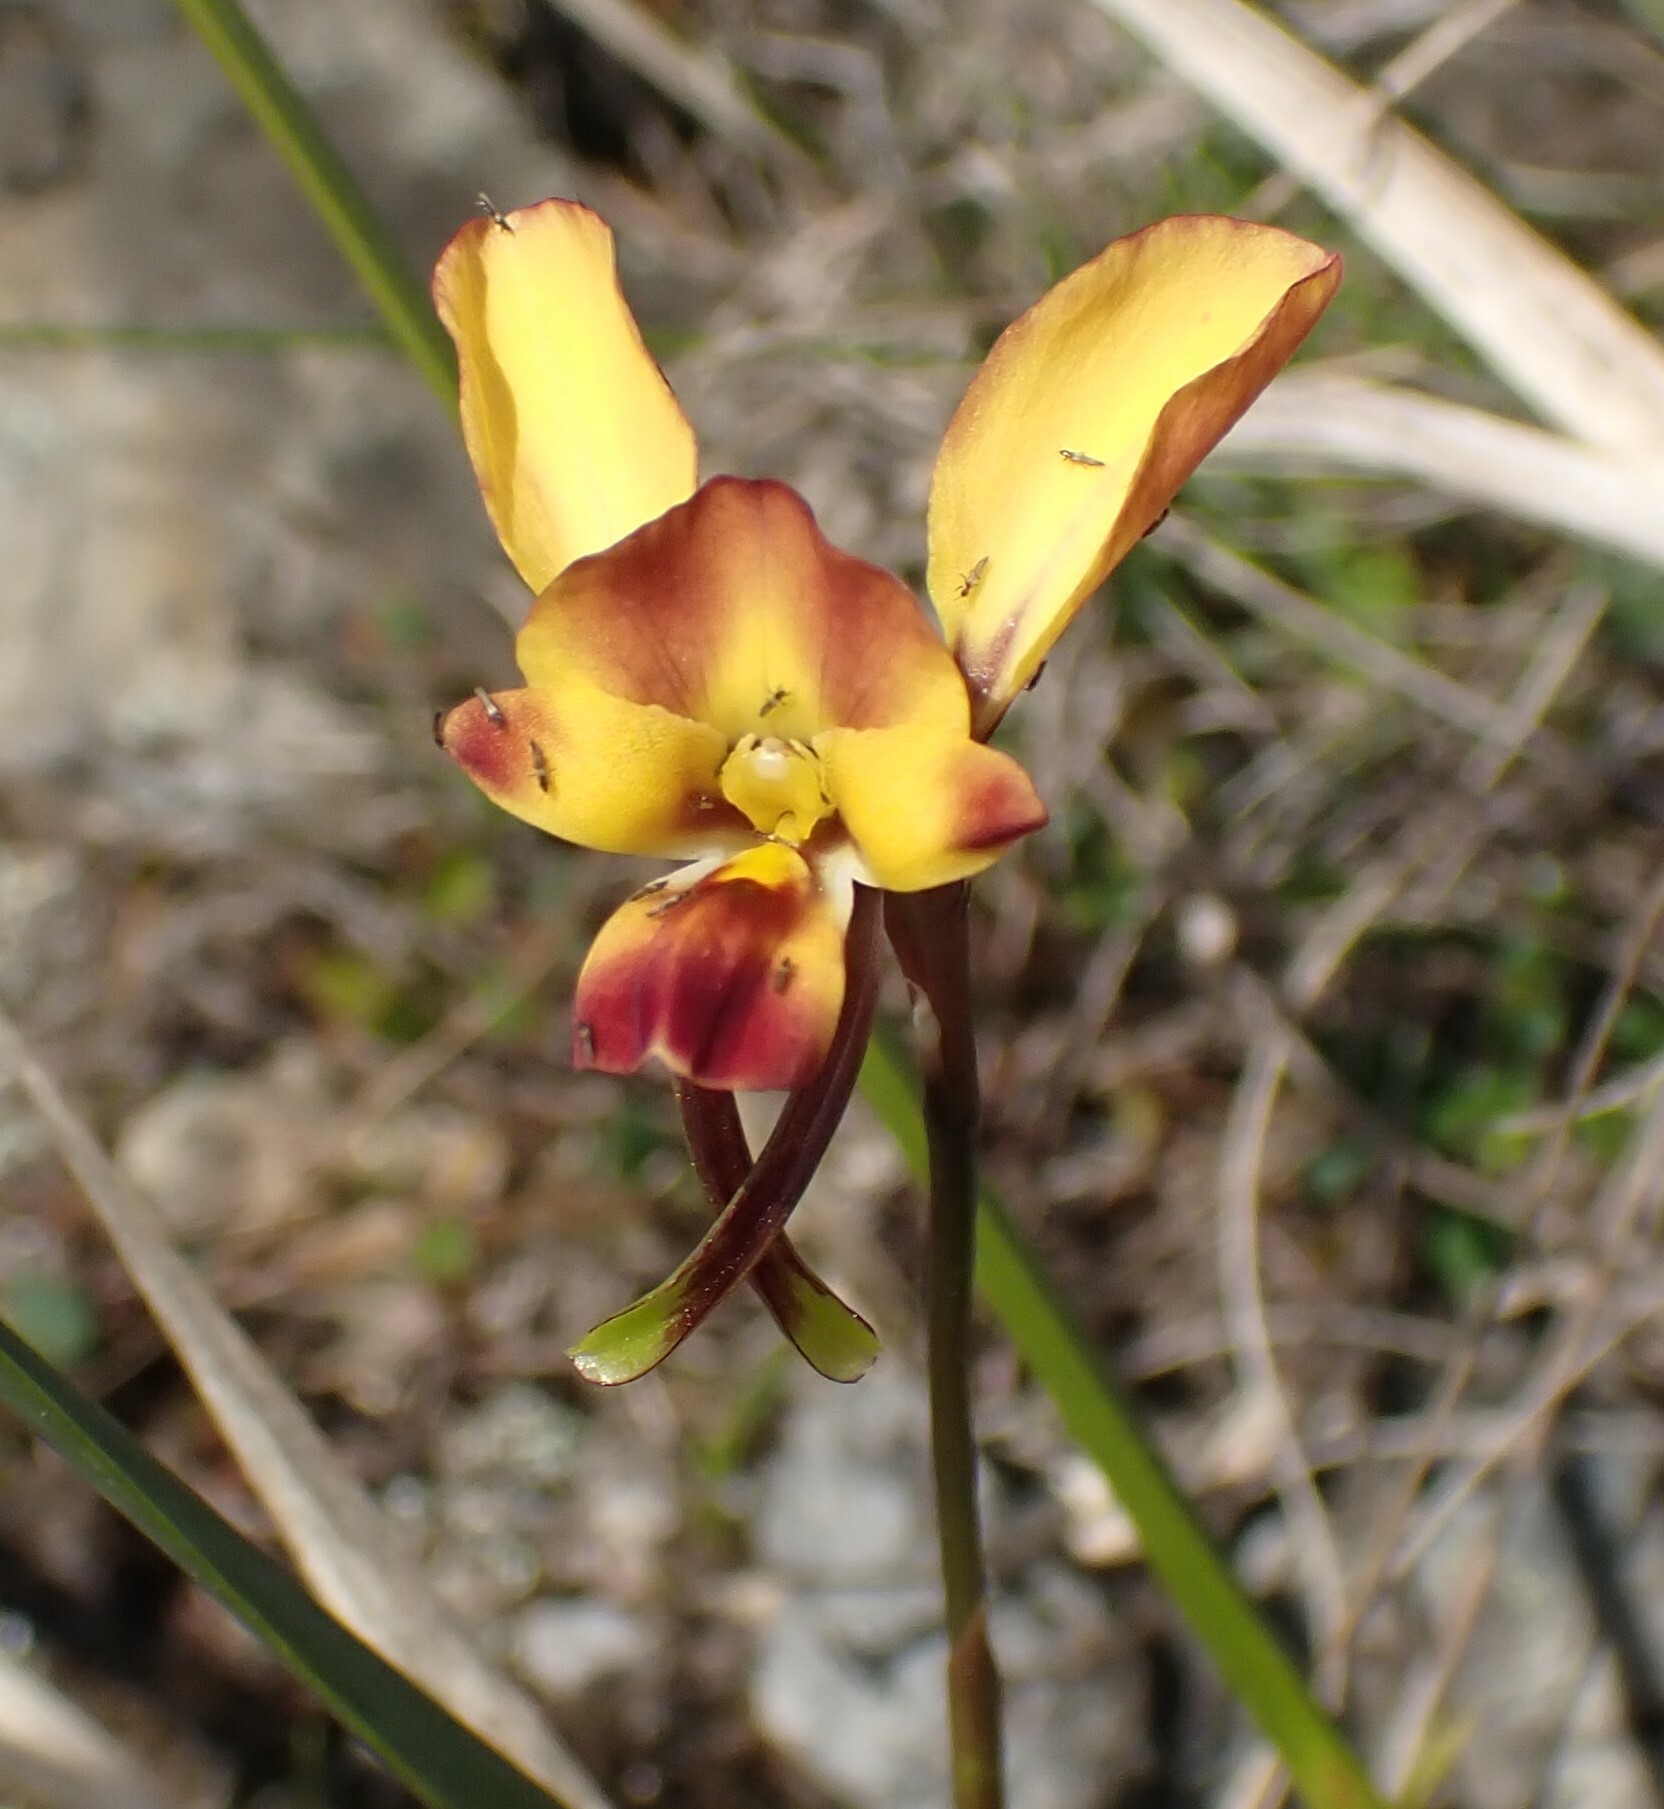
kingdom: Plantae
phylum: Tracheophyta
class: Liliopsida
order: Asparagales
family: Orchidaceae
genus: Diuris
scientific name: Diuris orientis
